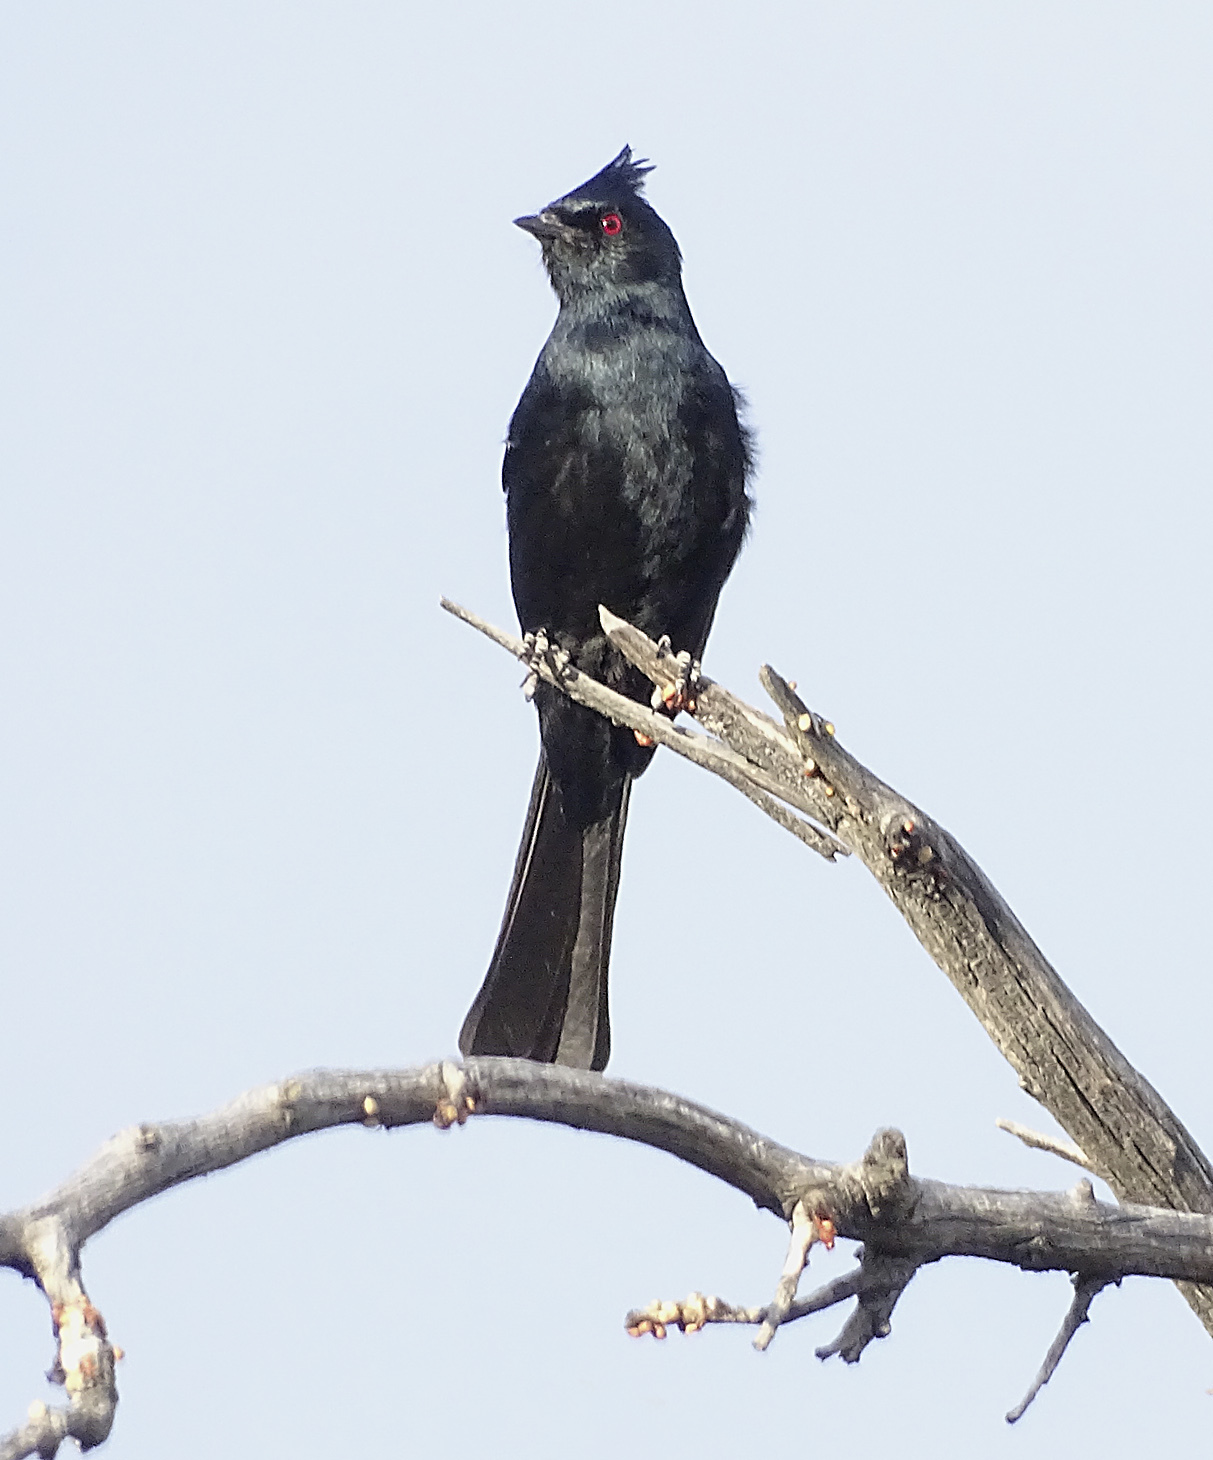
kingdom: Animalia
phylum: Chordata
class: Aves
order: Passeriformes
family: Ptilogonatidae
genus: Phainopepla
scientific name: Phainopepla nitens
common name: Phainopepla
